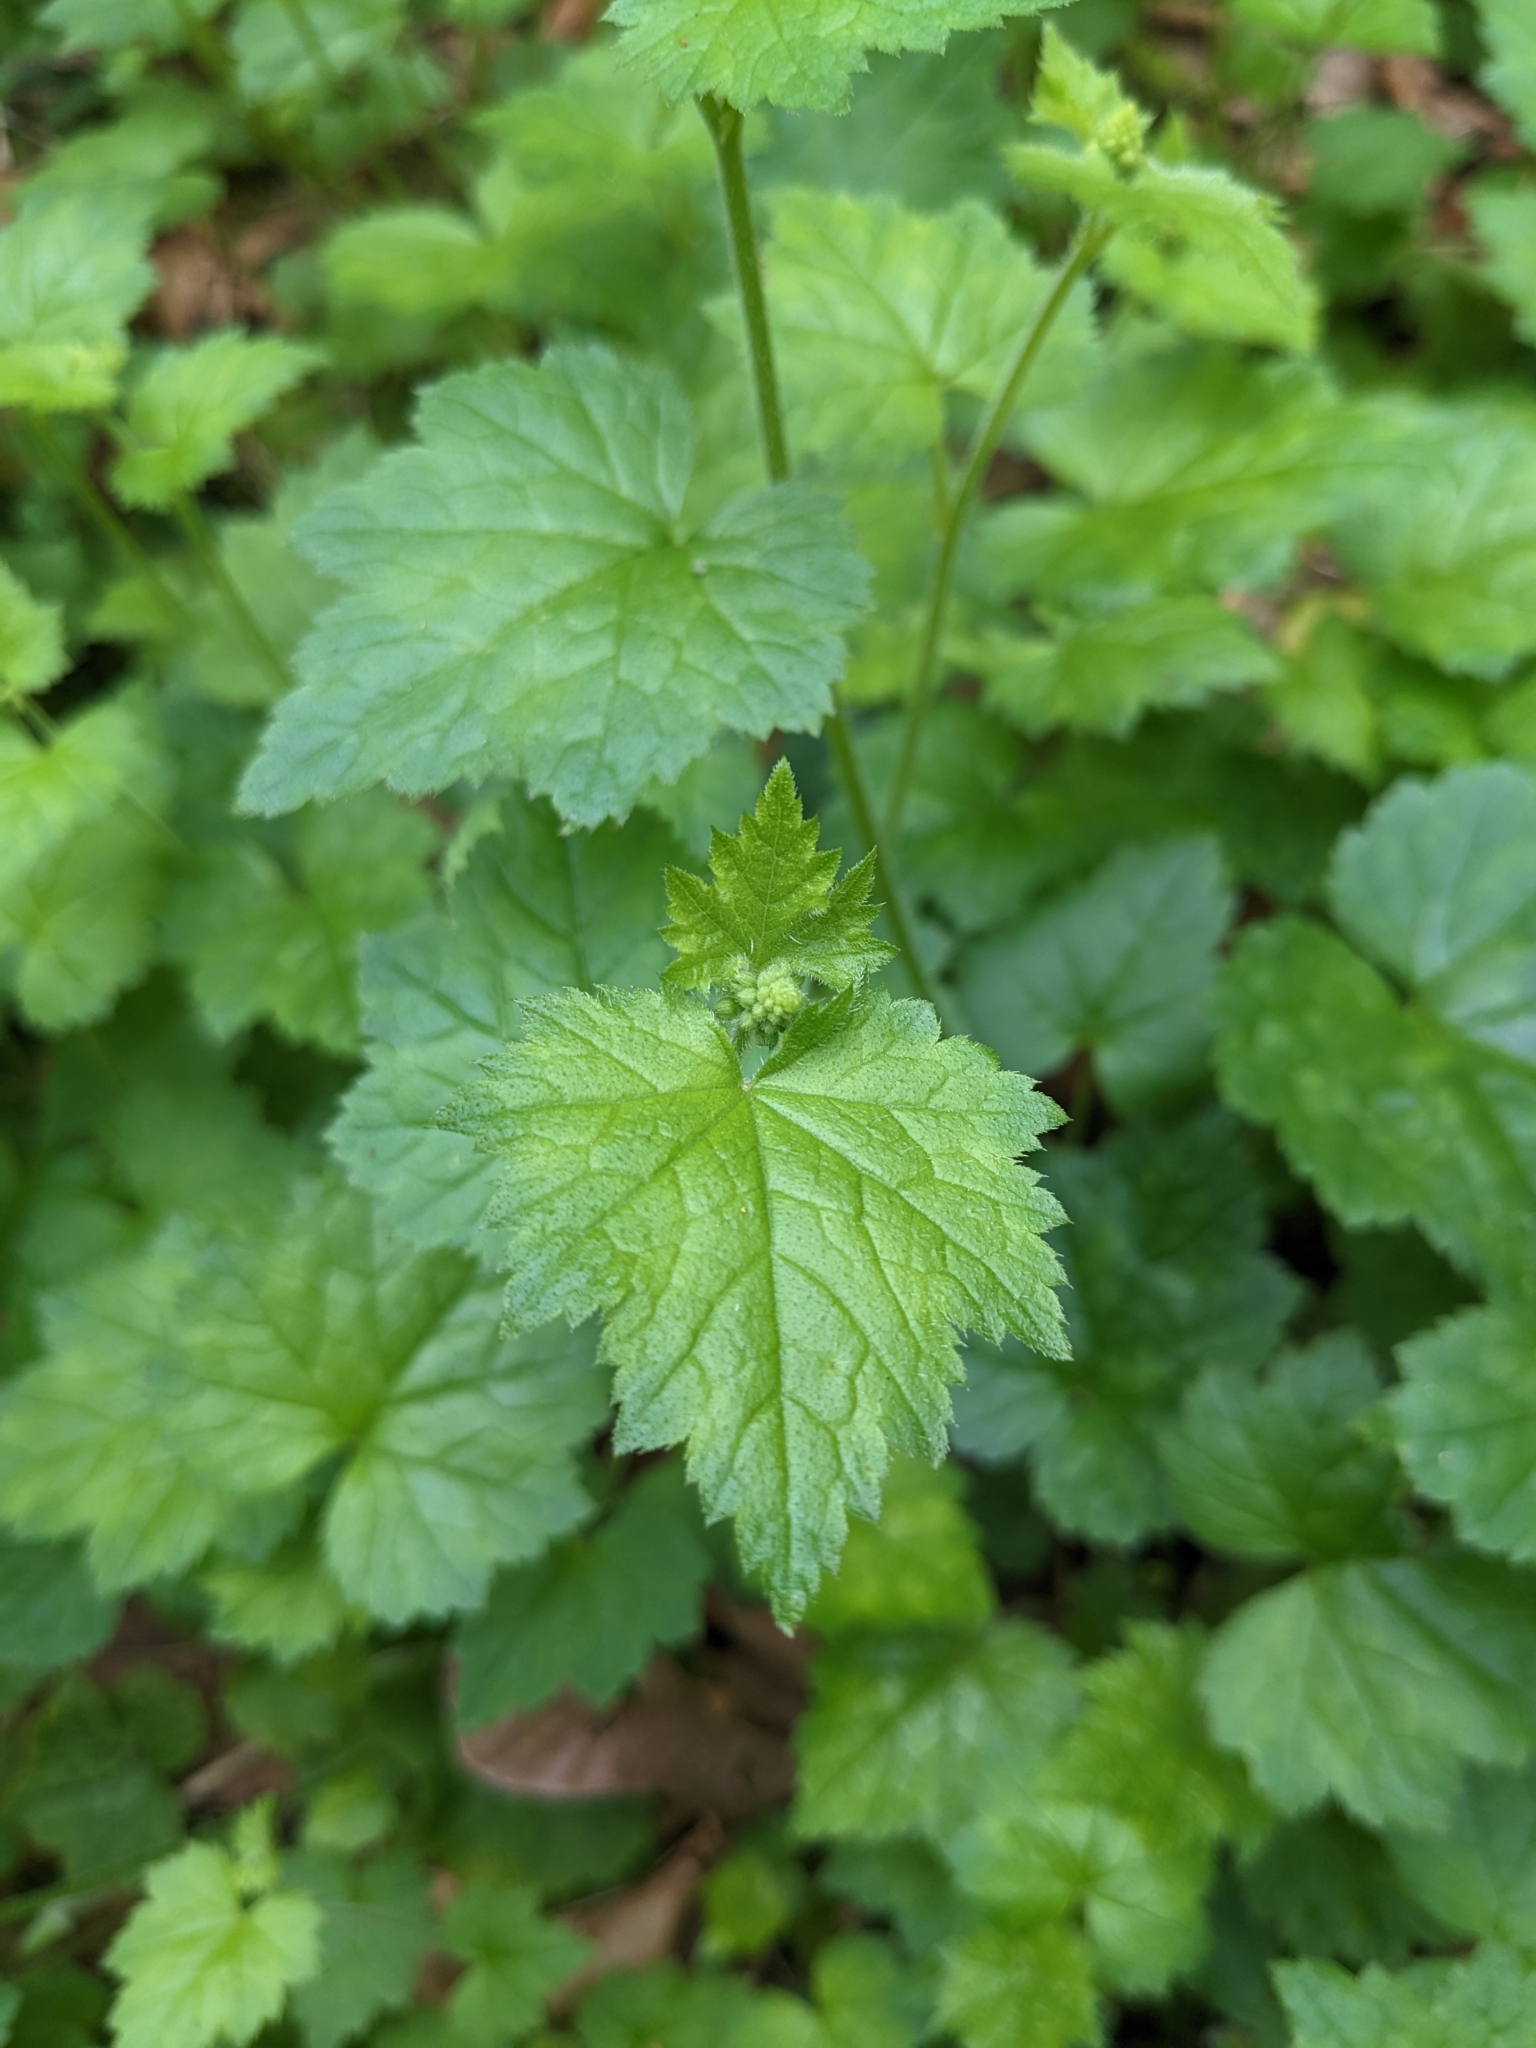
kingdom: Plantae
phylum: Tracheophyta
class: Magnoliopsida
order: Saxifragales
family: Saxifragaceae
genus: Tolmiea
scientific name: Tolmiea menziesii
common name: Pick-a-back-plant
